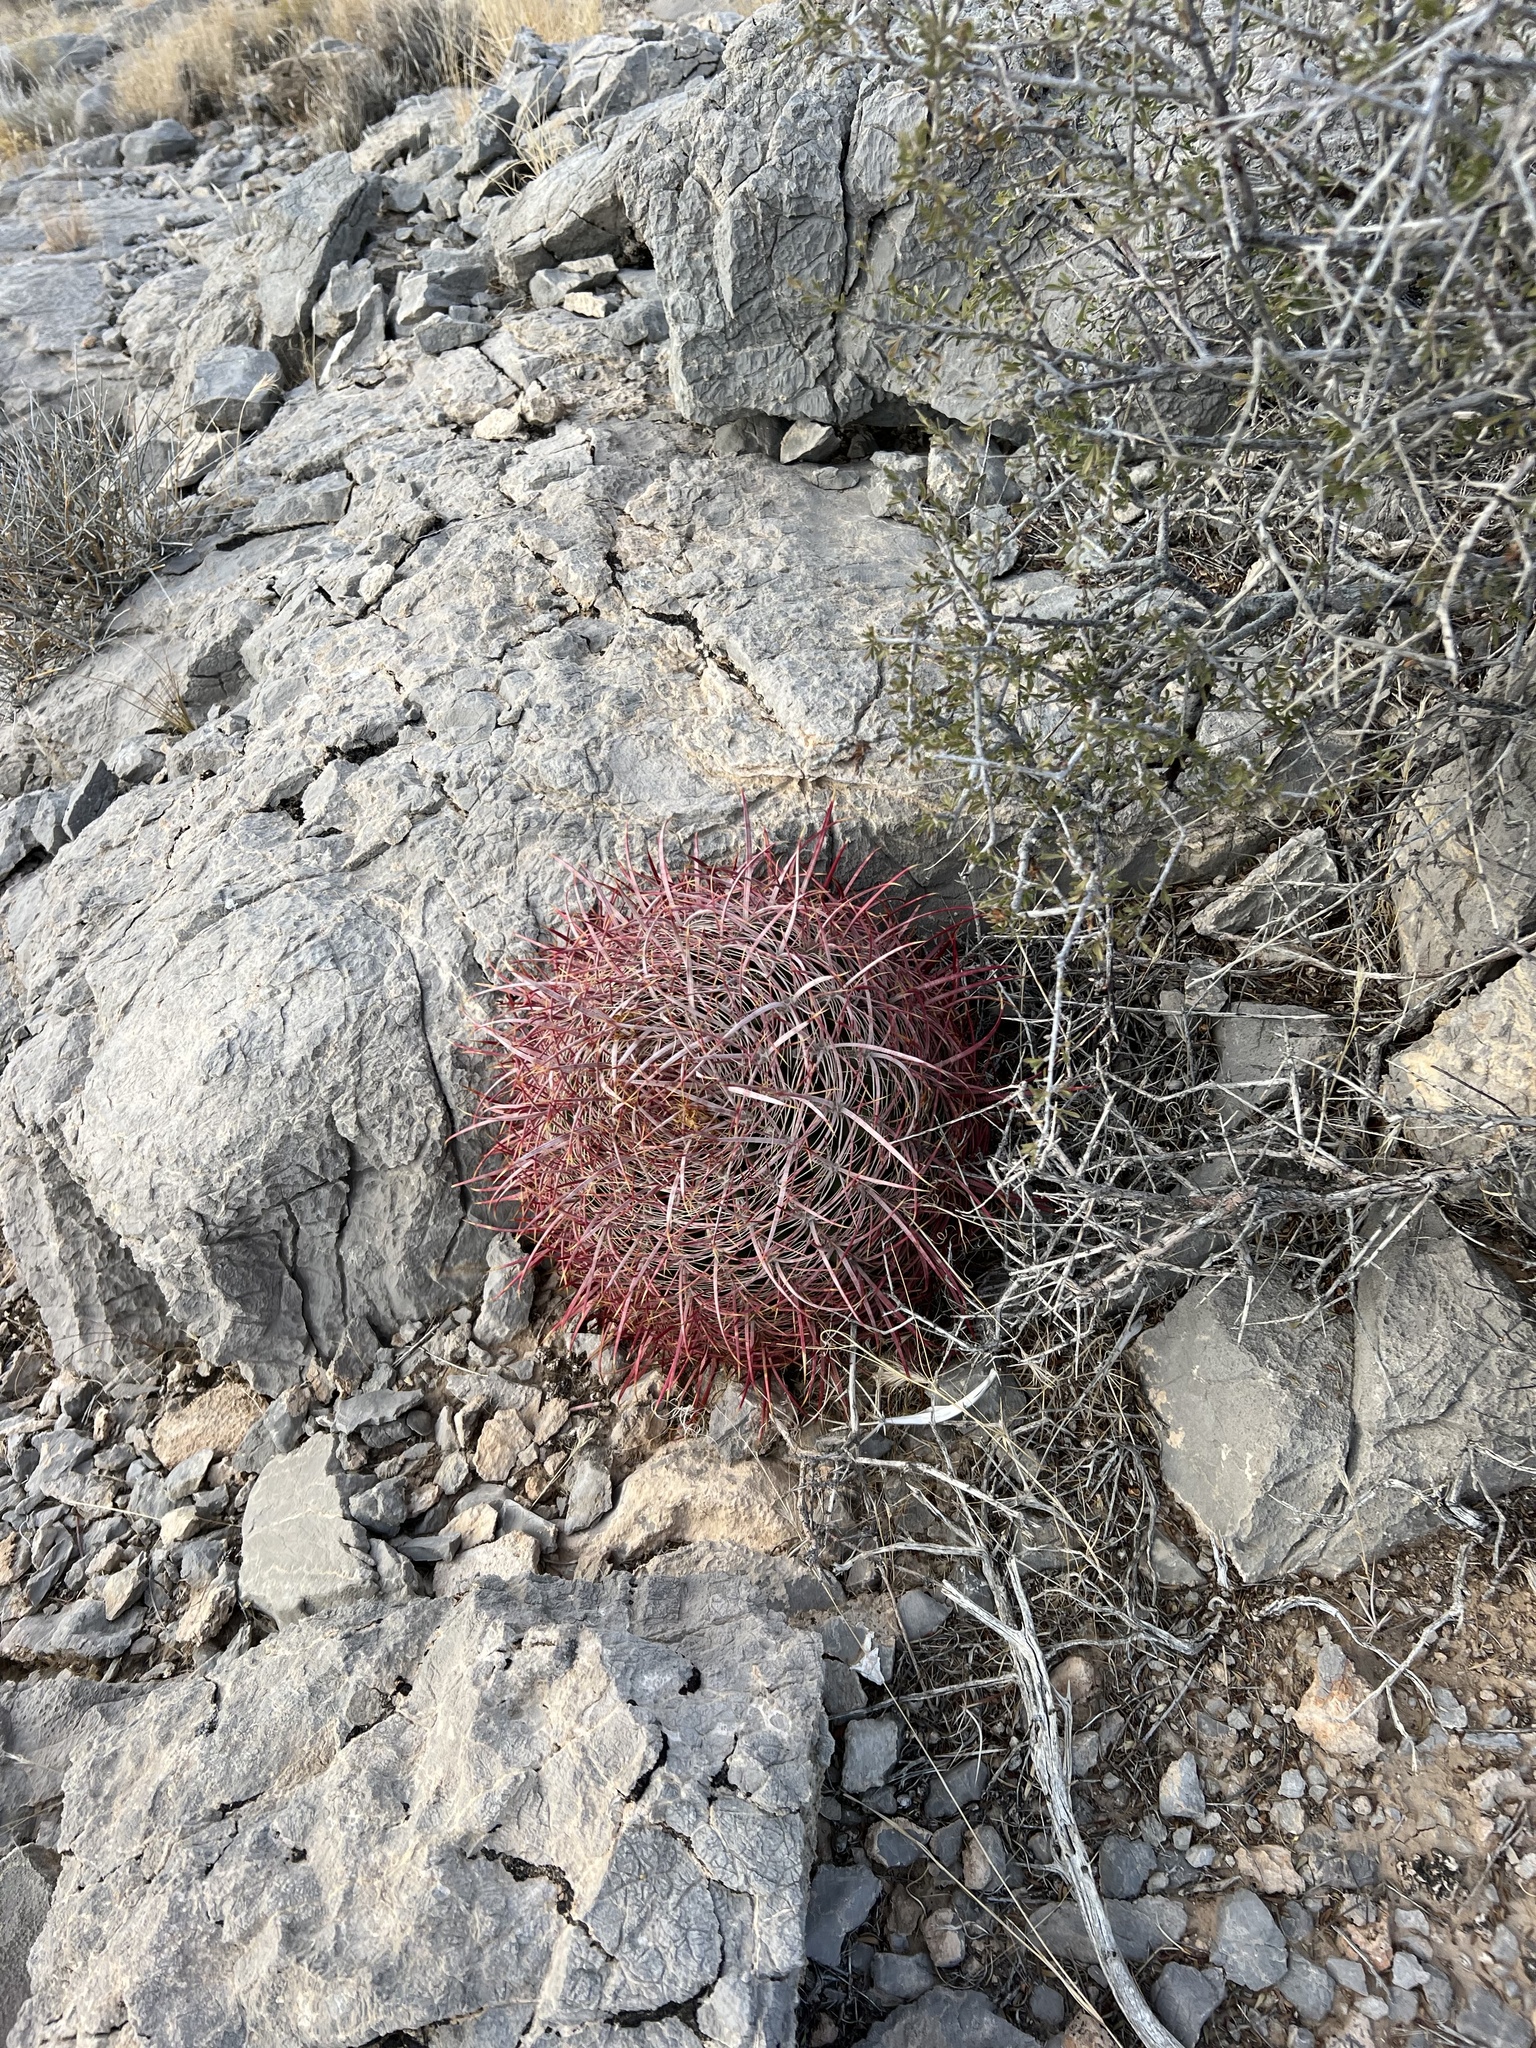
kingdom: Plantae
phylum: Tracheophyta
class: Magnoliopsida
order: Caryophyllales
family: Cactaceae
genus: Ferocactus
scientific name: Ferocactus cylindraceus
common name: California barrel cactus
